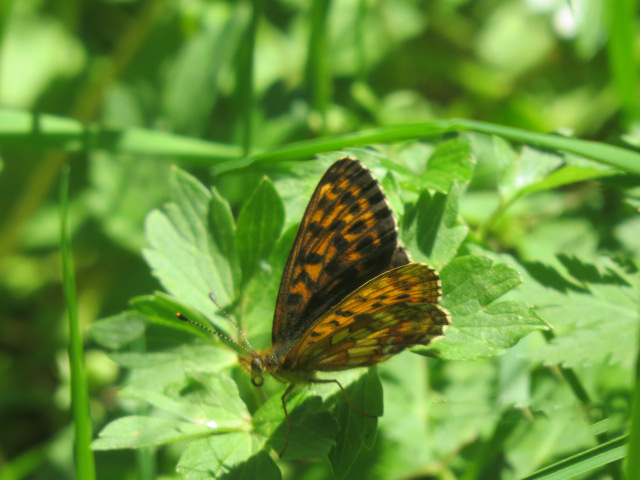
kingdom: Animalia
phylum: Arthropoda
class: Insecta
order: Lepidoptera
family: Nymphalidae
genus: Boloria
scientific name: Boloria thore
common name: Thor's fritillary
